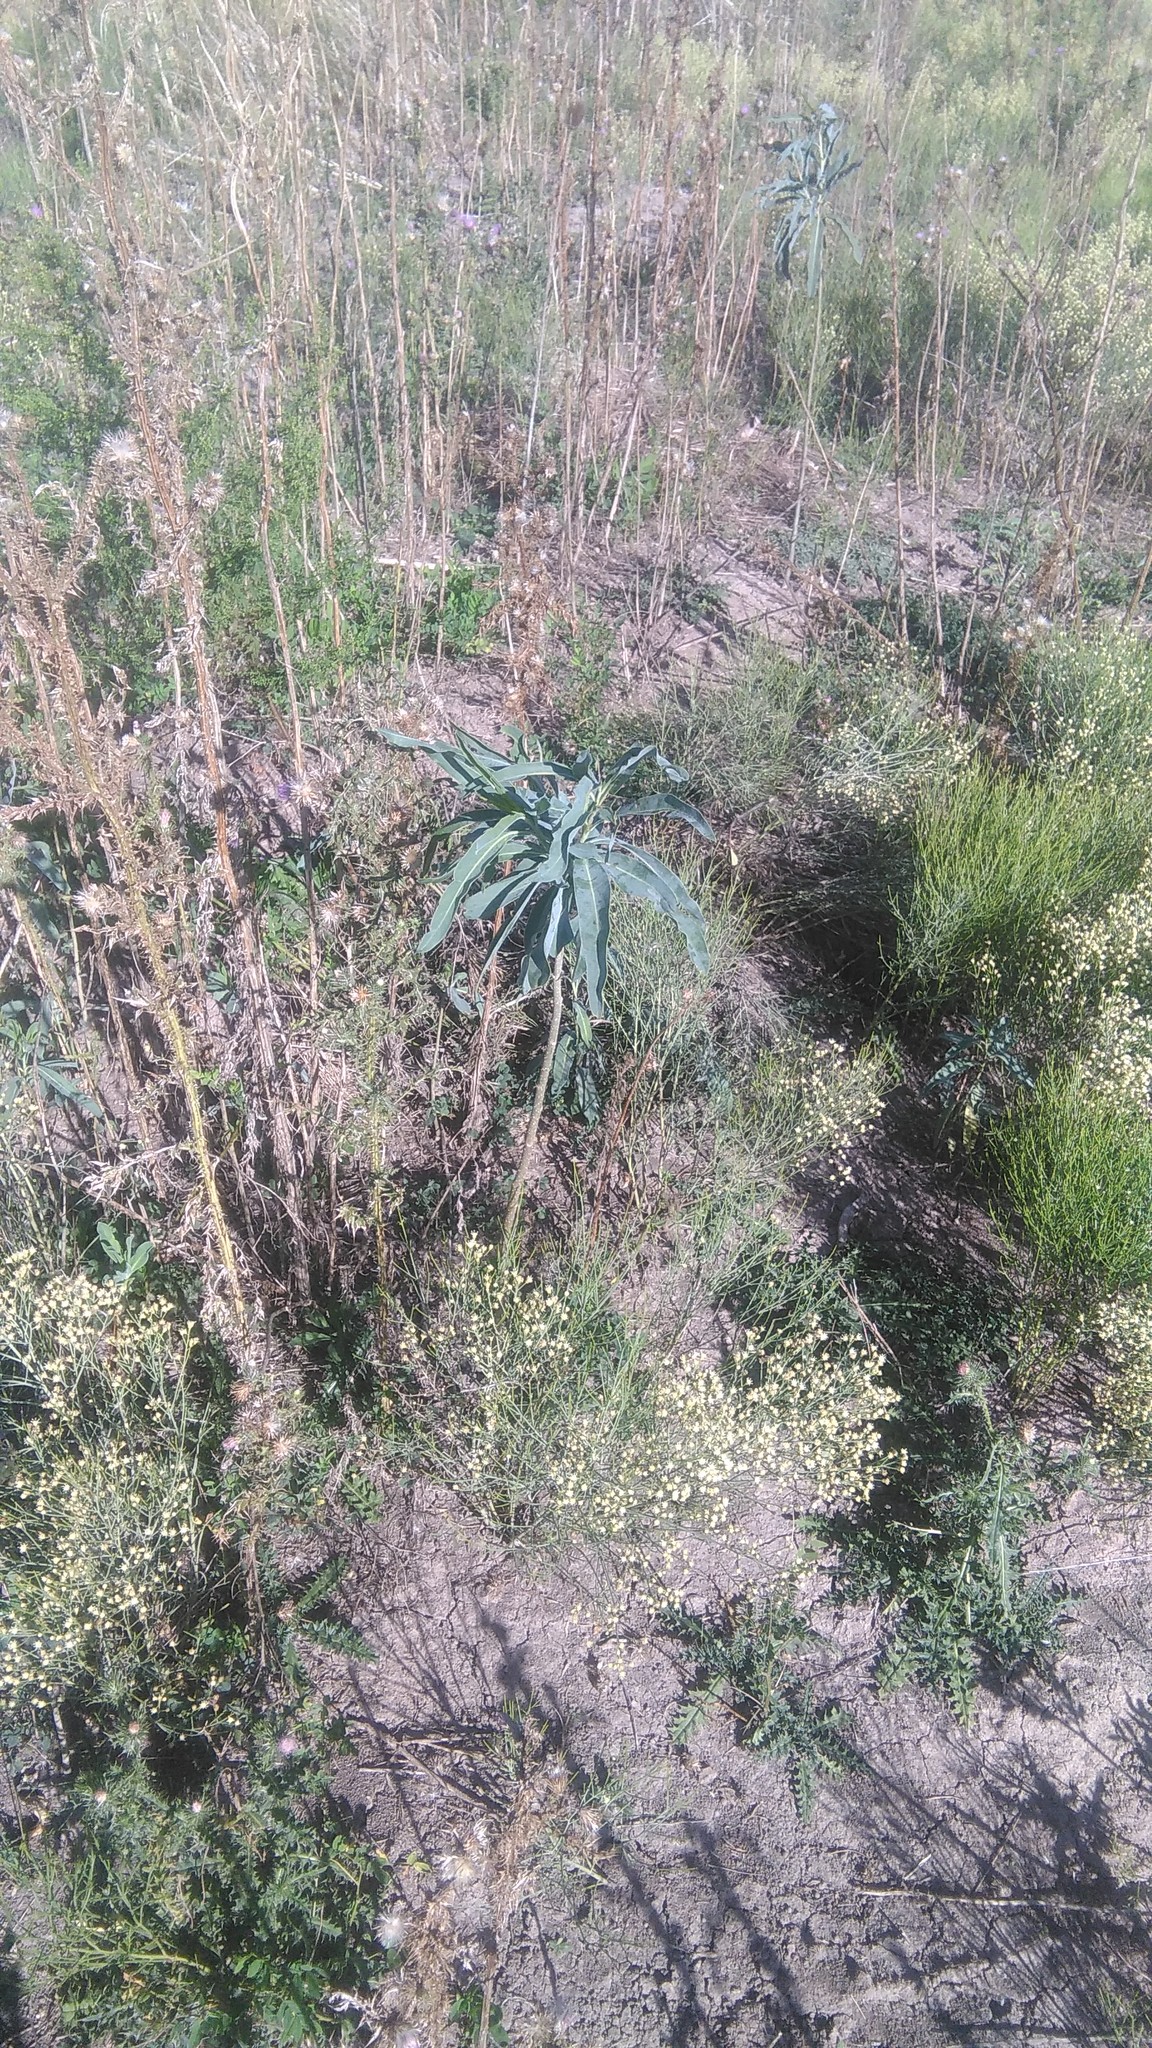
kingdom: Plantae
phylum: Tracheophyta
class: Magnoliopsida
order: Solanales
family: Solanaceae
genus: Solanum
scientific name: Solanum glaucophyllum
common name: Waxyleaf nightshade
